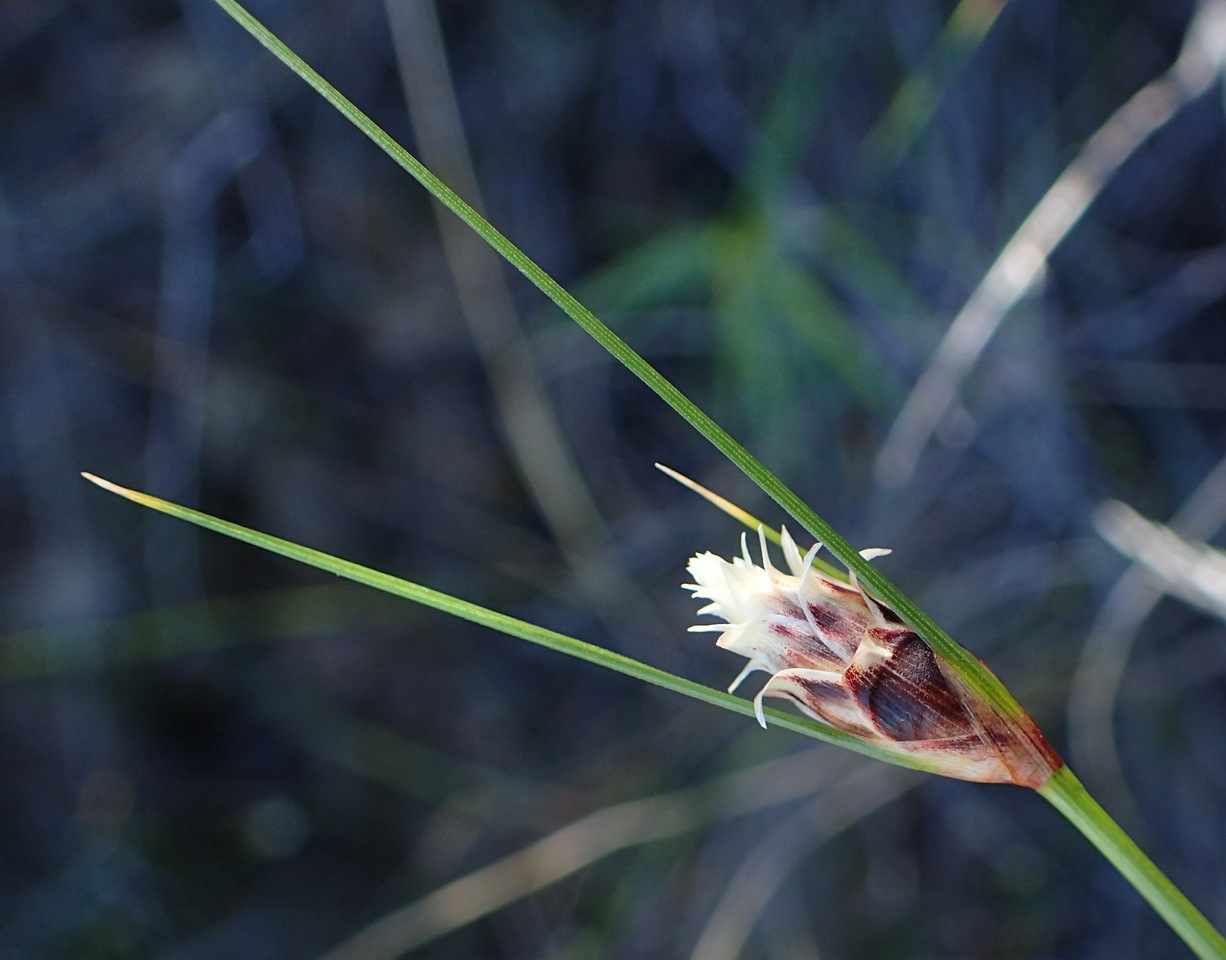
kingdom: Plantae
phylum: Tracheophyta
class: Liliopsida
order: Poales
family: Cyperaceae
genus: Ficinia
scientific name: Ficinia nigrescens
